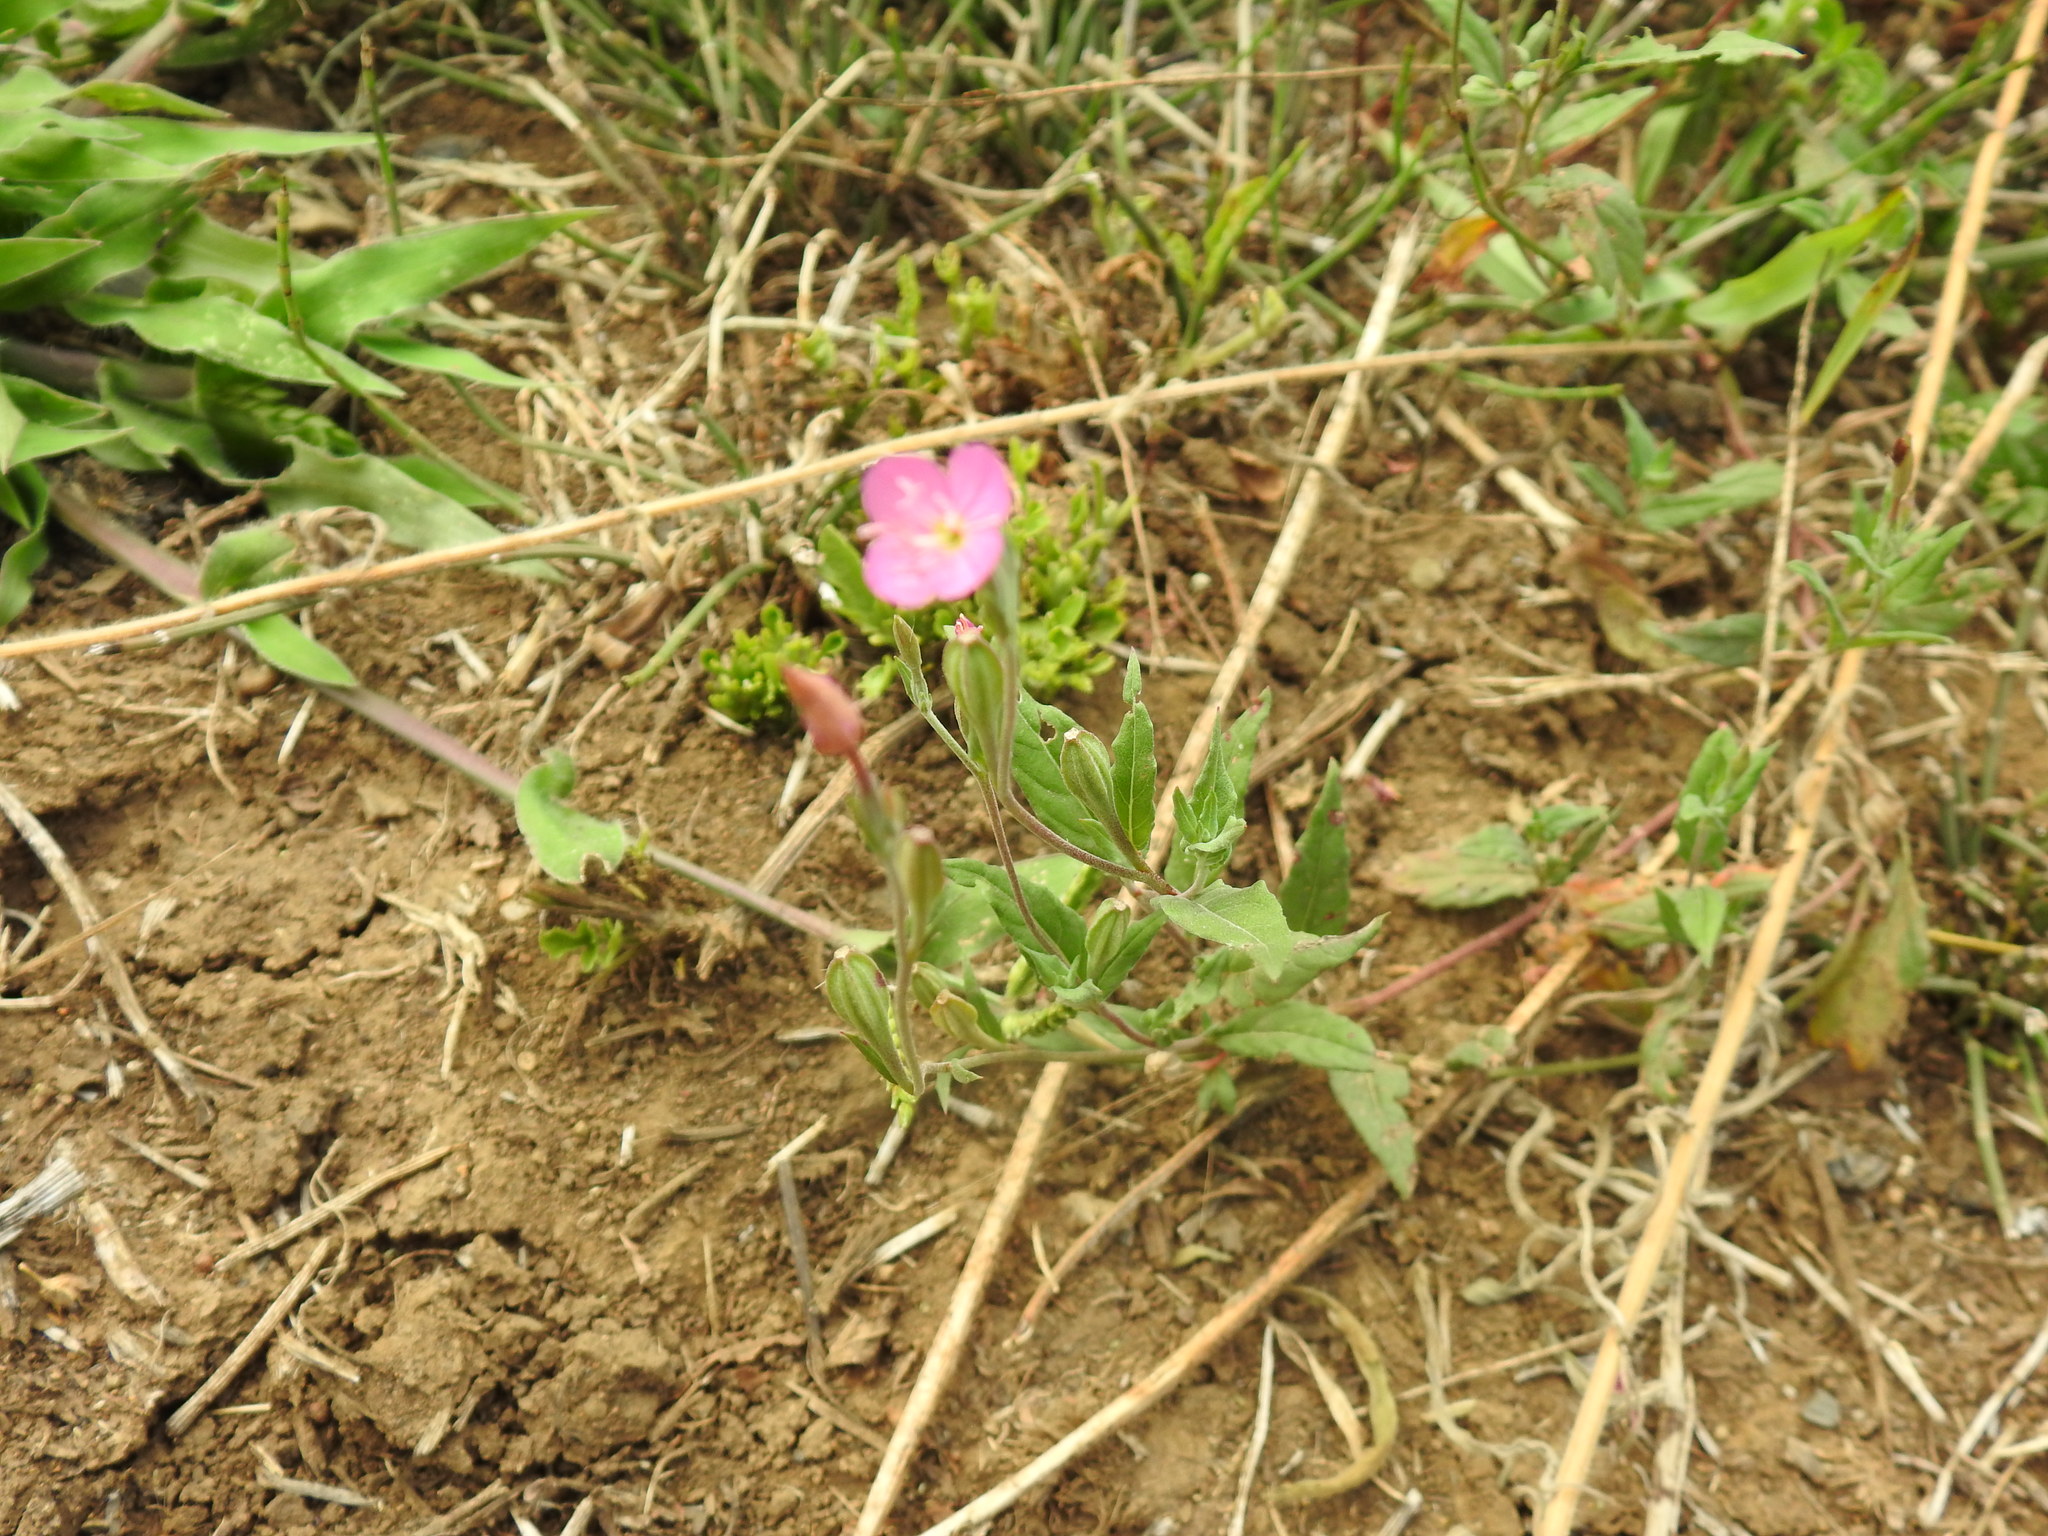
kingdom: Plantae
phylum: Tracheophyta
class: Magnoliopsida
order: Myrtales
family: Onagraceae
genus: Oenothera
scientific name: Oenothera rosea
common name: Rosy evening-primrose
